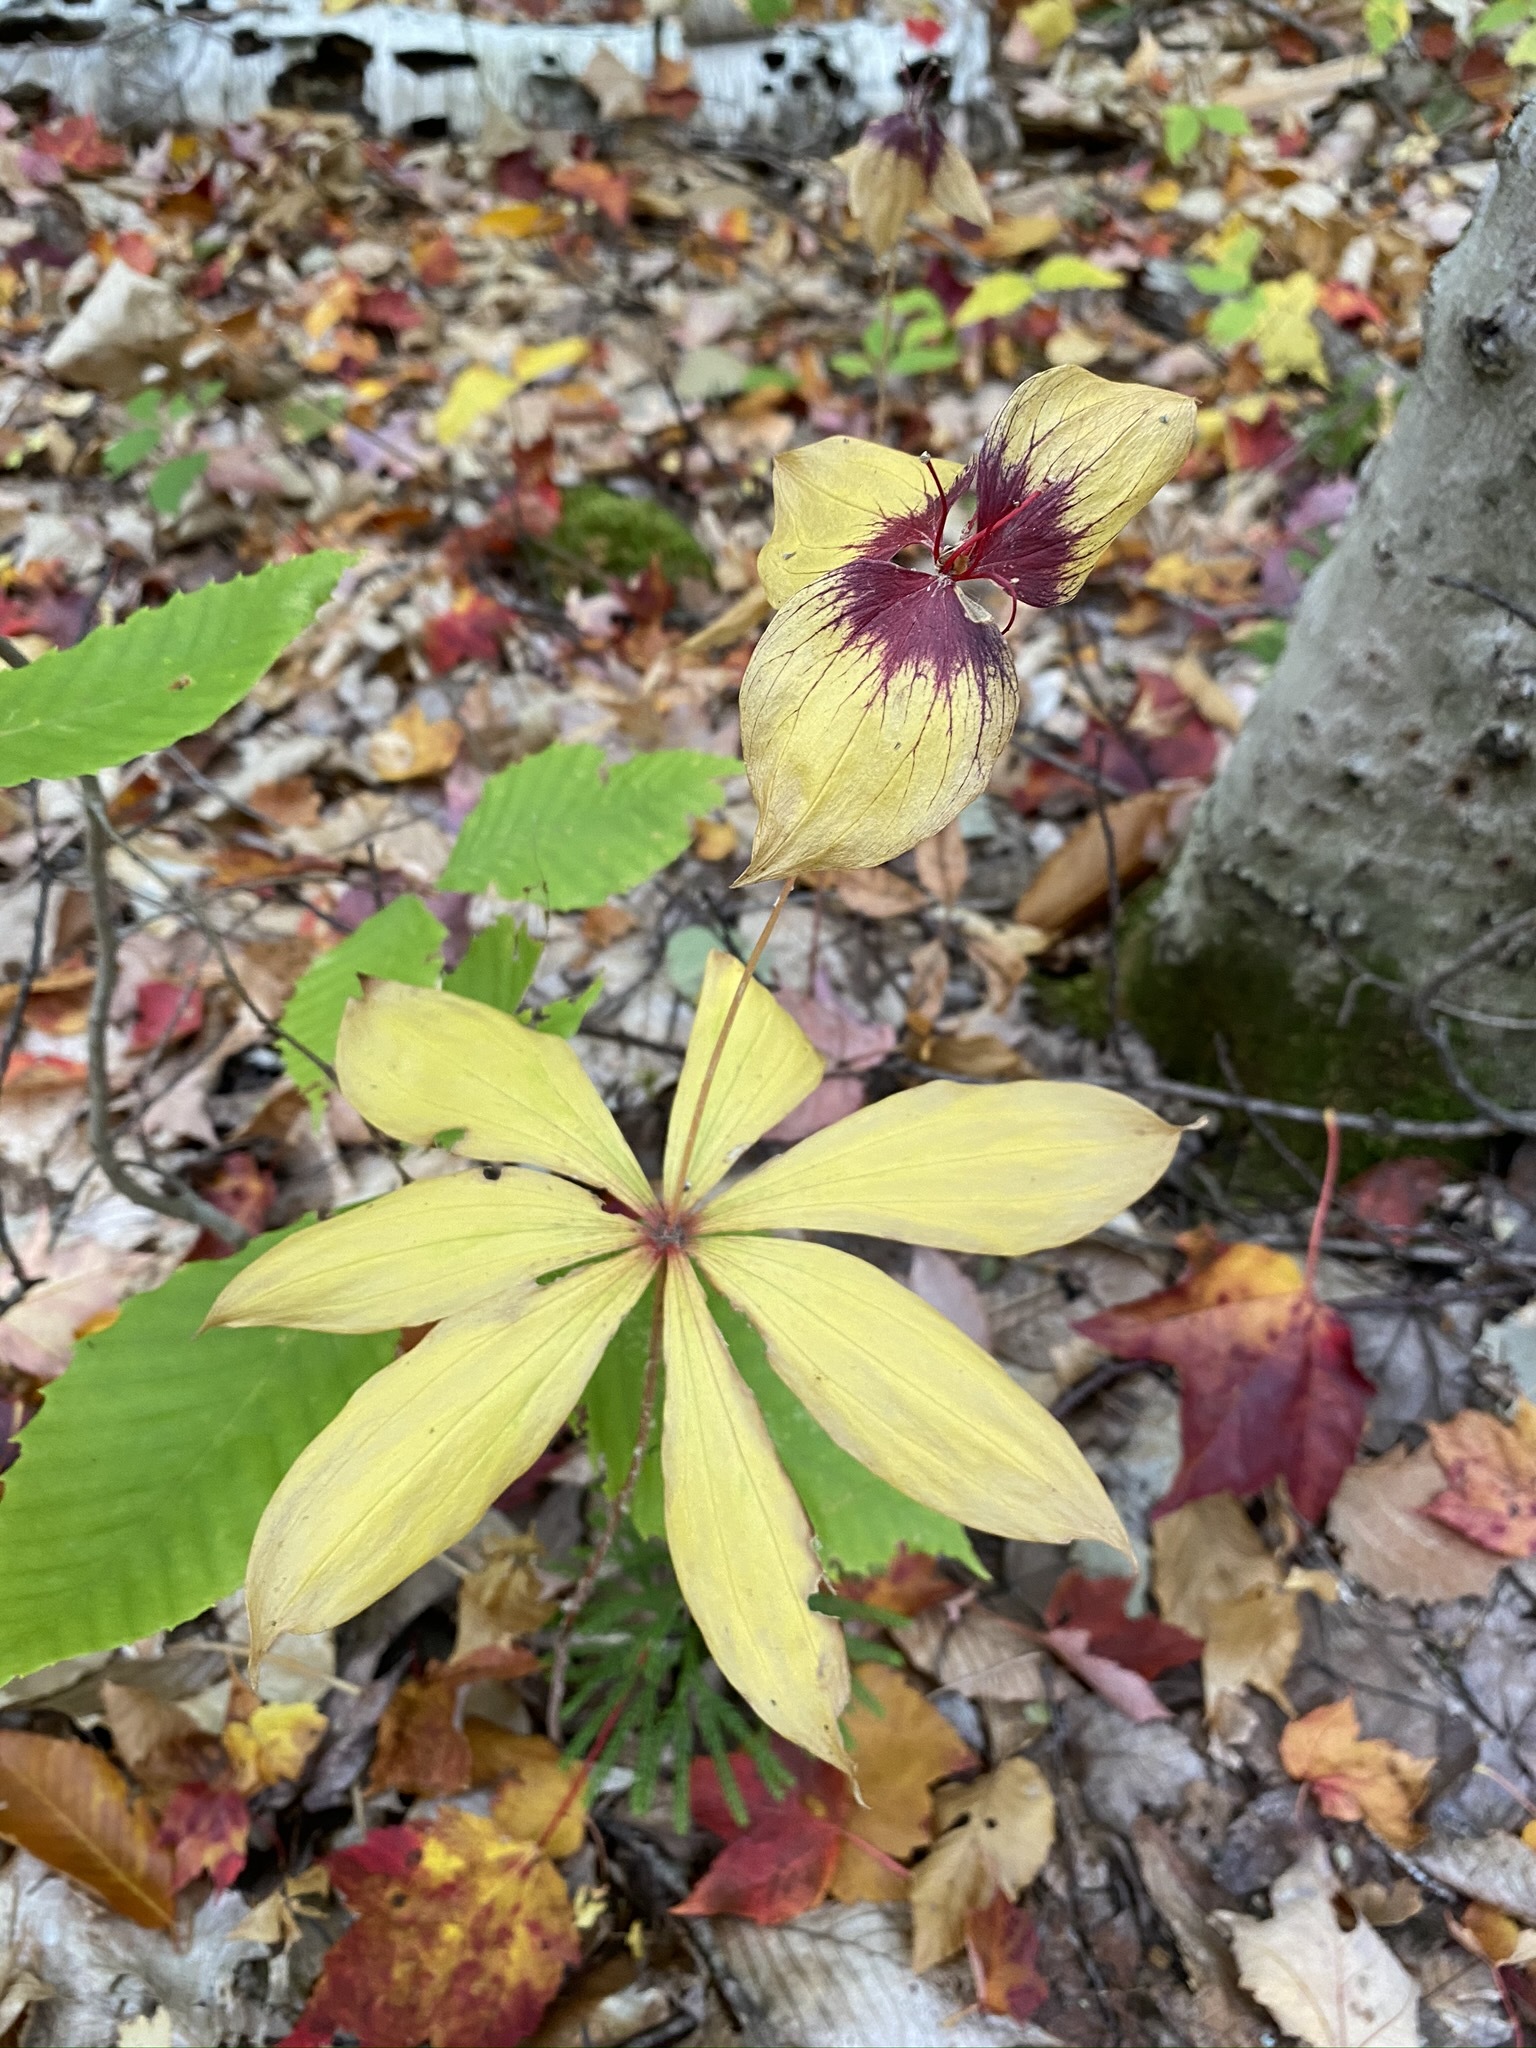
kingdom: Plantae
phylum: Tracheophyta
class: Liliopsida
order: Liliales
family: Liliaceae
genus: Medeola
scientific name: Medeola virginiana
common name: Indian cucumber-root
